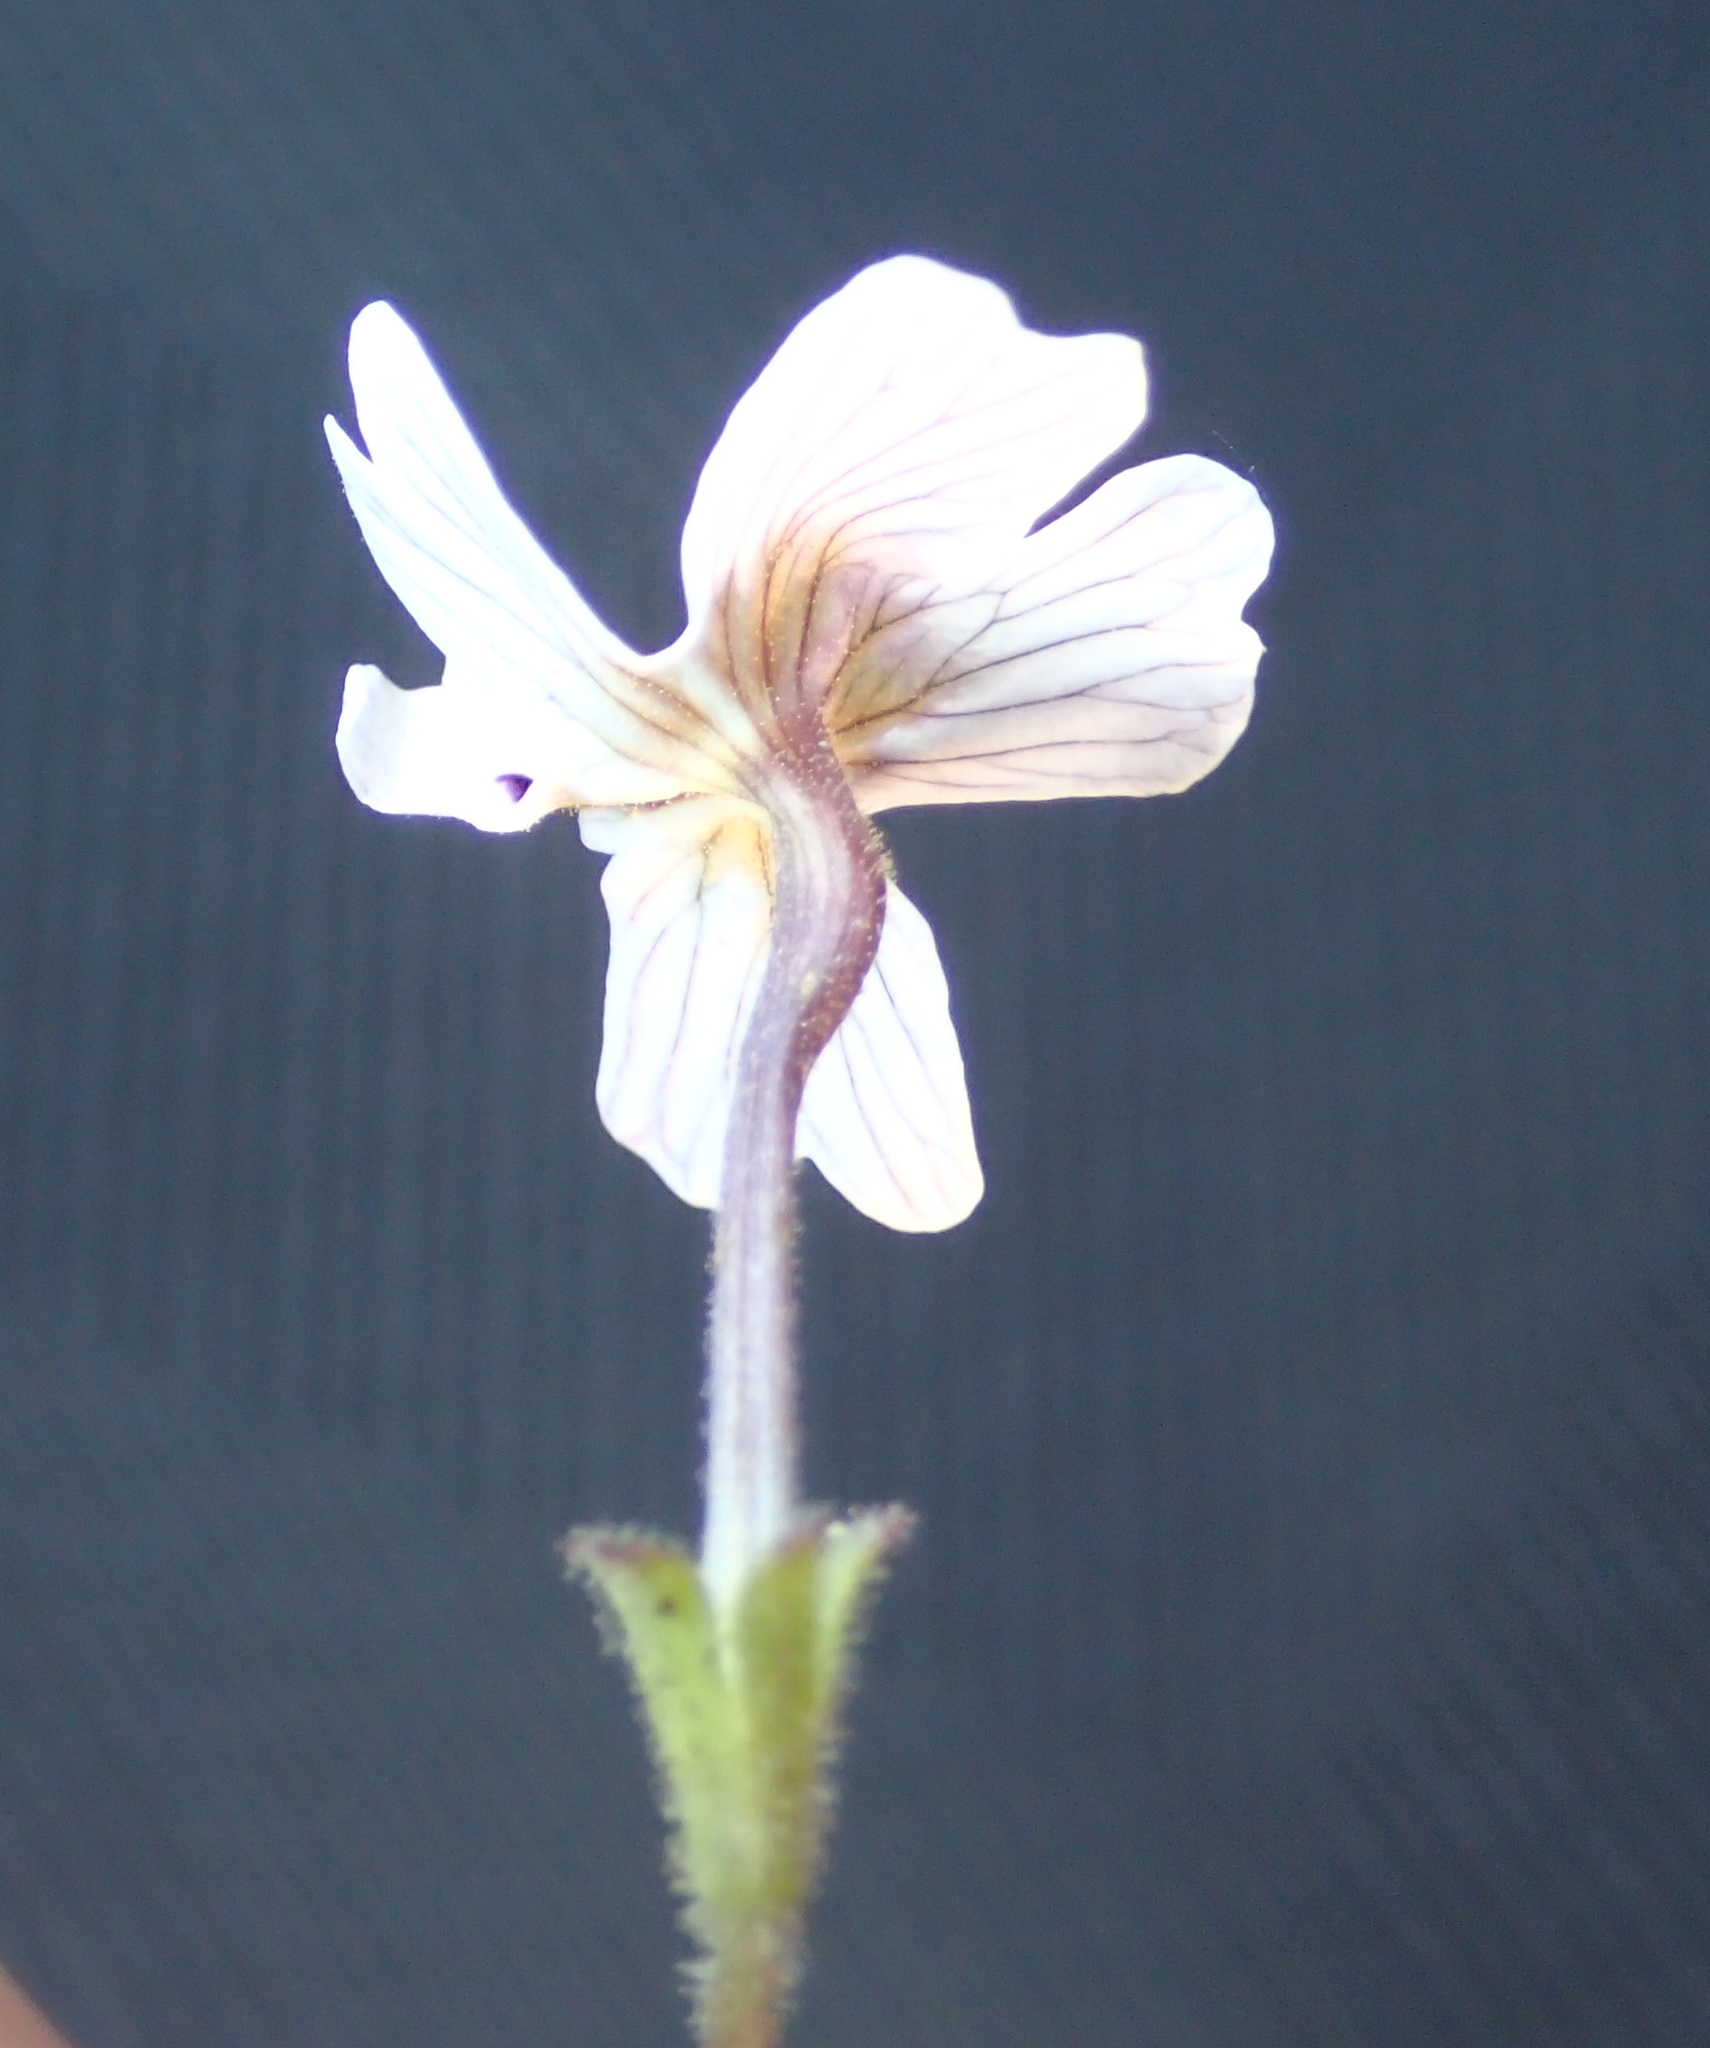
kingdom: Plantae
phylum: Tracheophyta
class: Magnoliopsida
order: Lamiales
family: Scrophulariaceae
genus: Jamesbrittenia
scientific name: Jamesbrittenia racemosa
